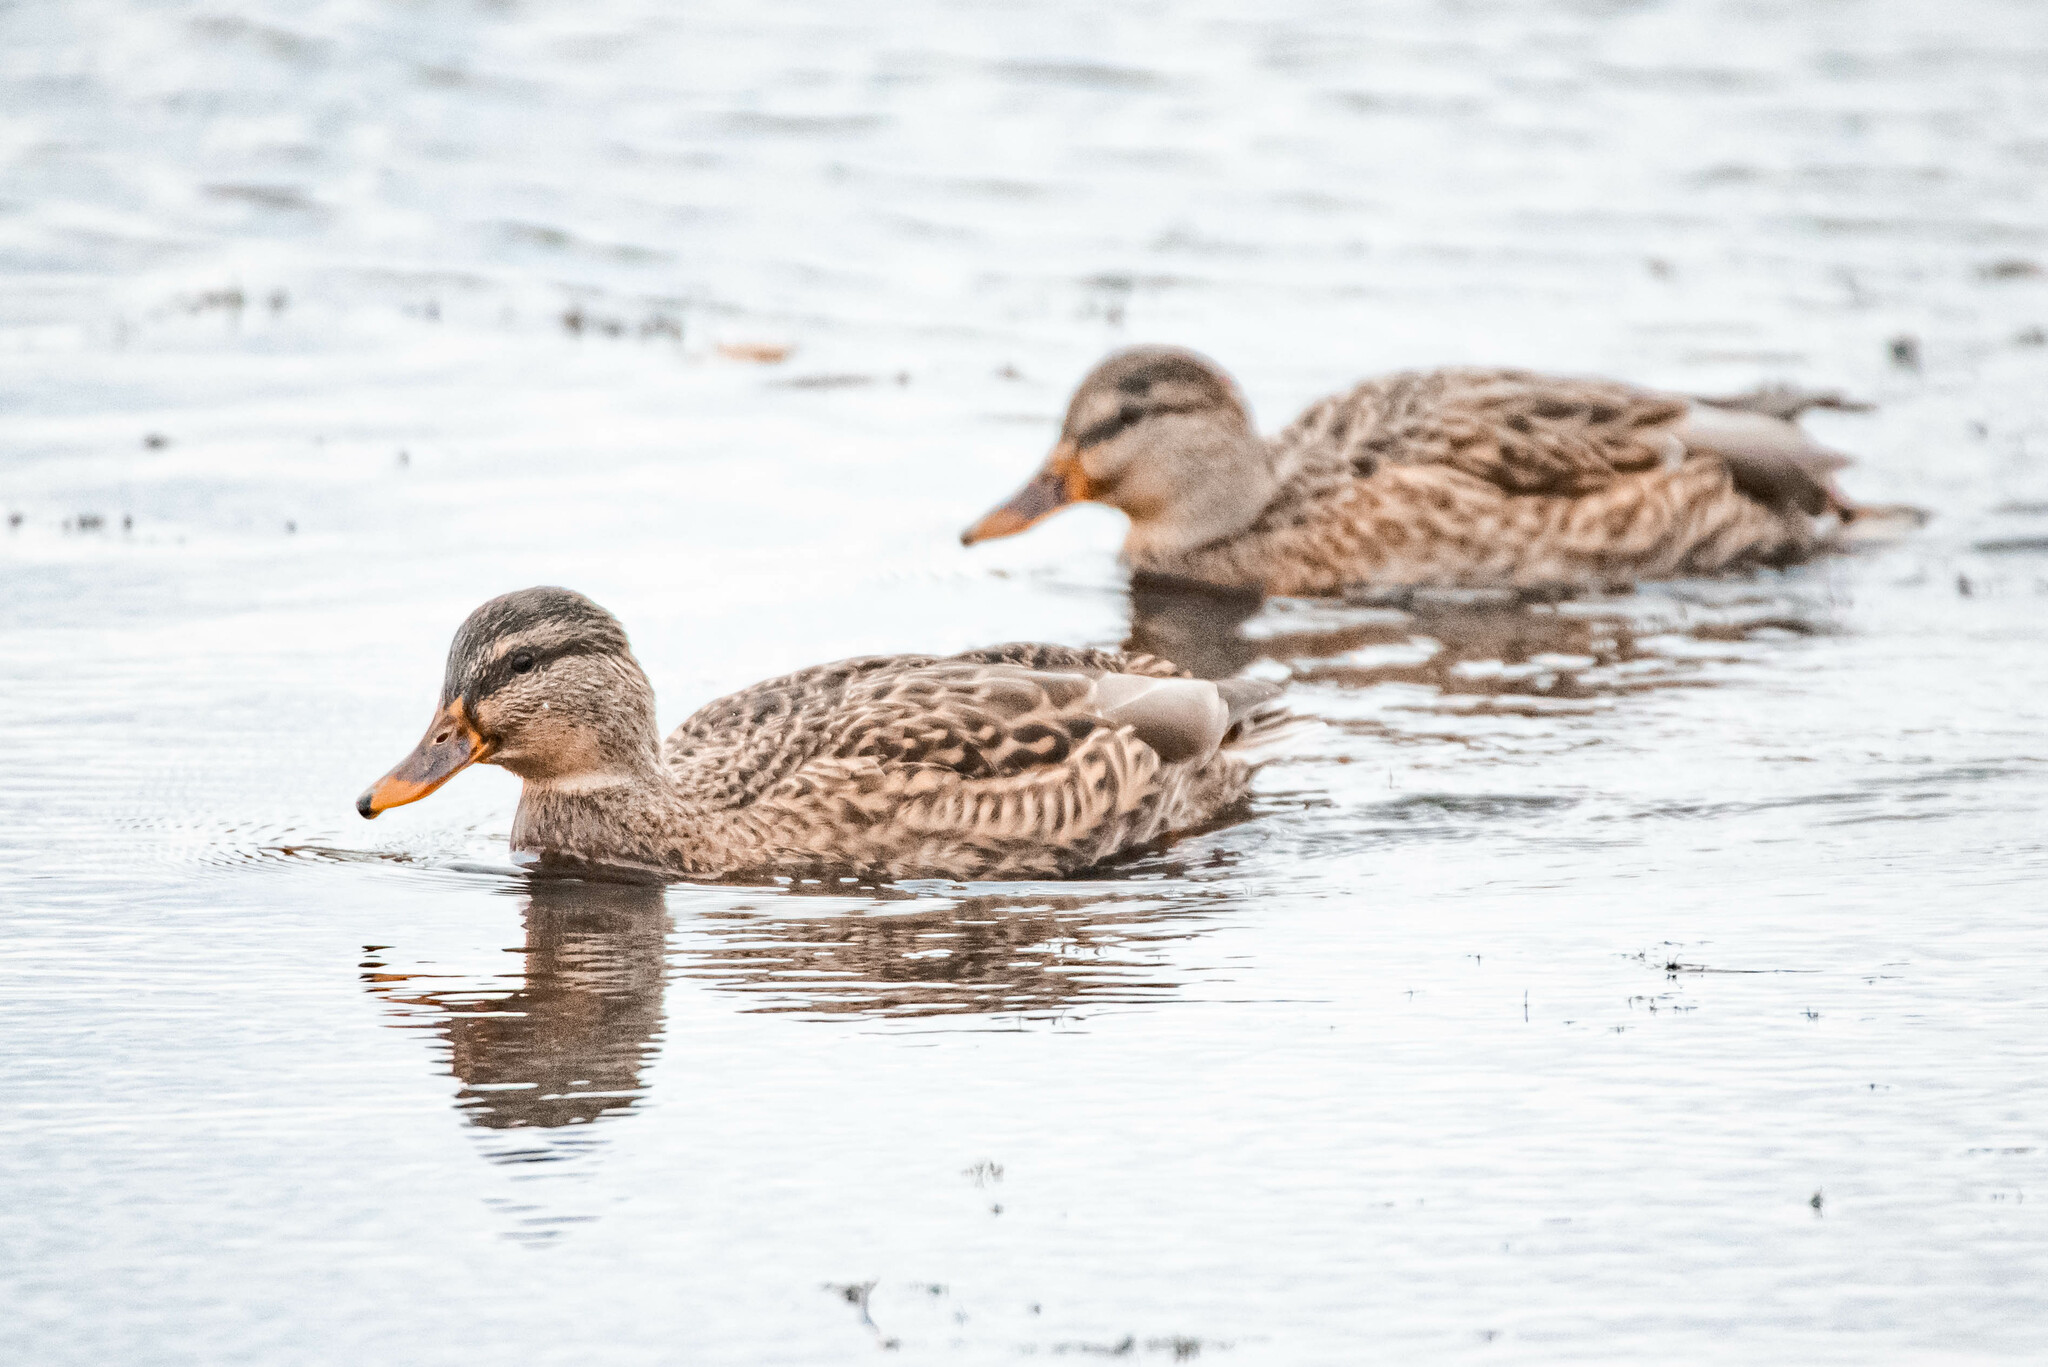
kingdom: Animalia
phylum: Chordata
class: Aves
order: Anseriformes
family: Anatidae
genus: Anas
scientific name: Anas platyrhynchos
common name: Mallard
